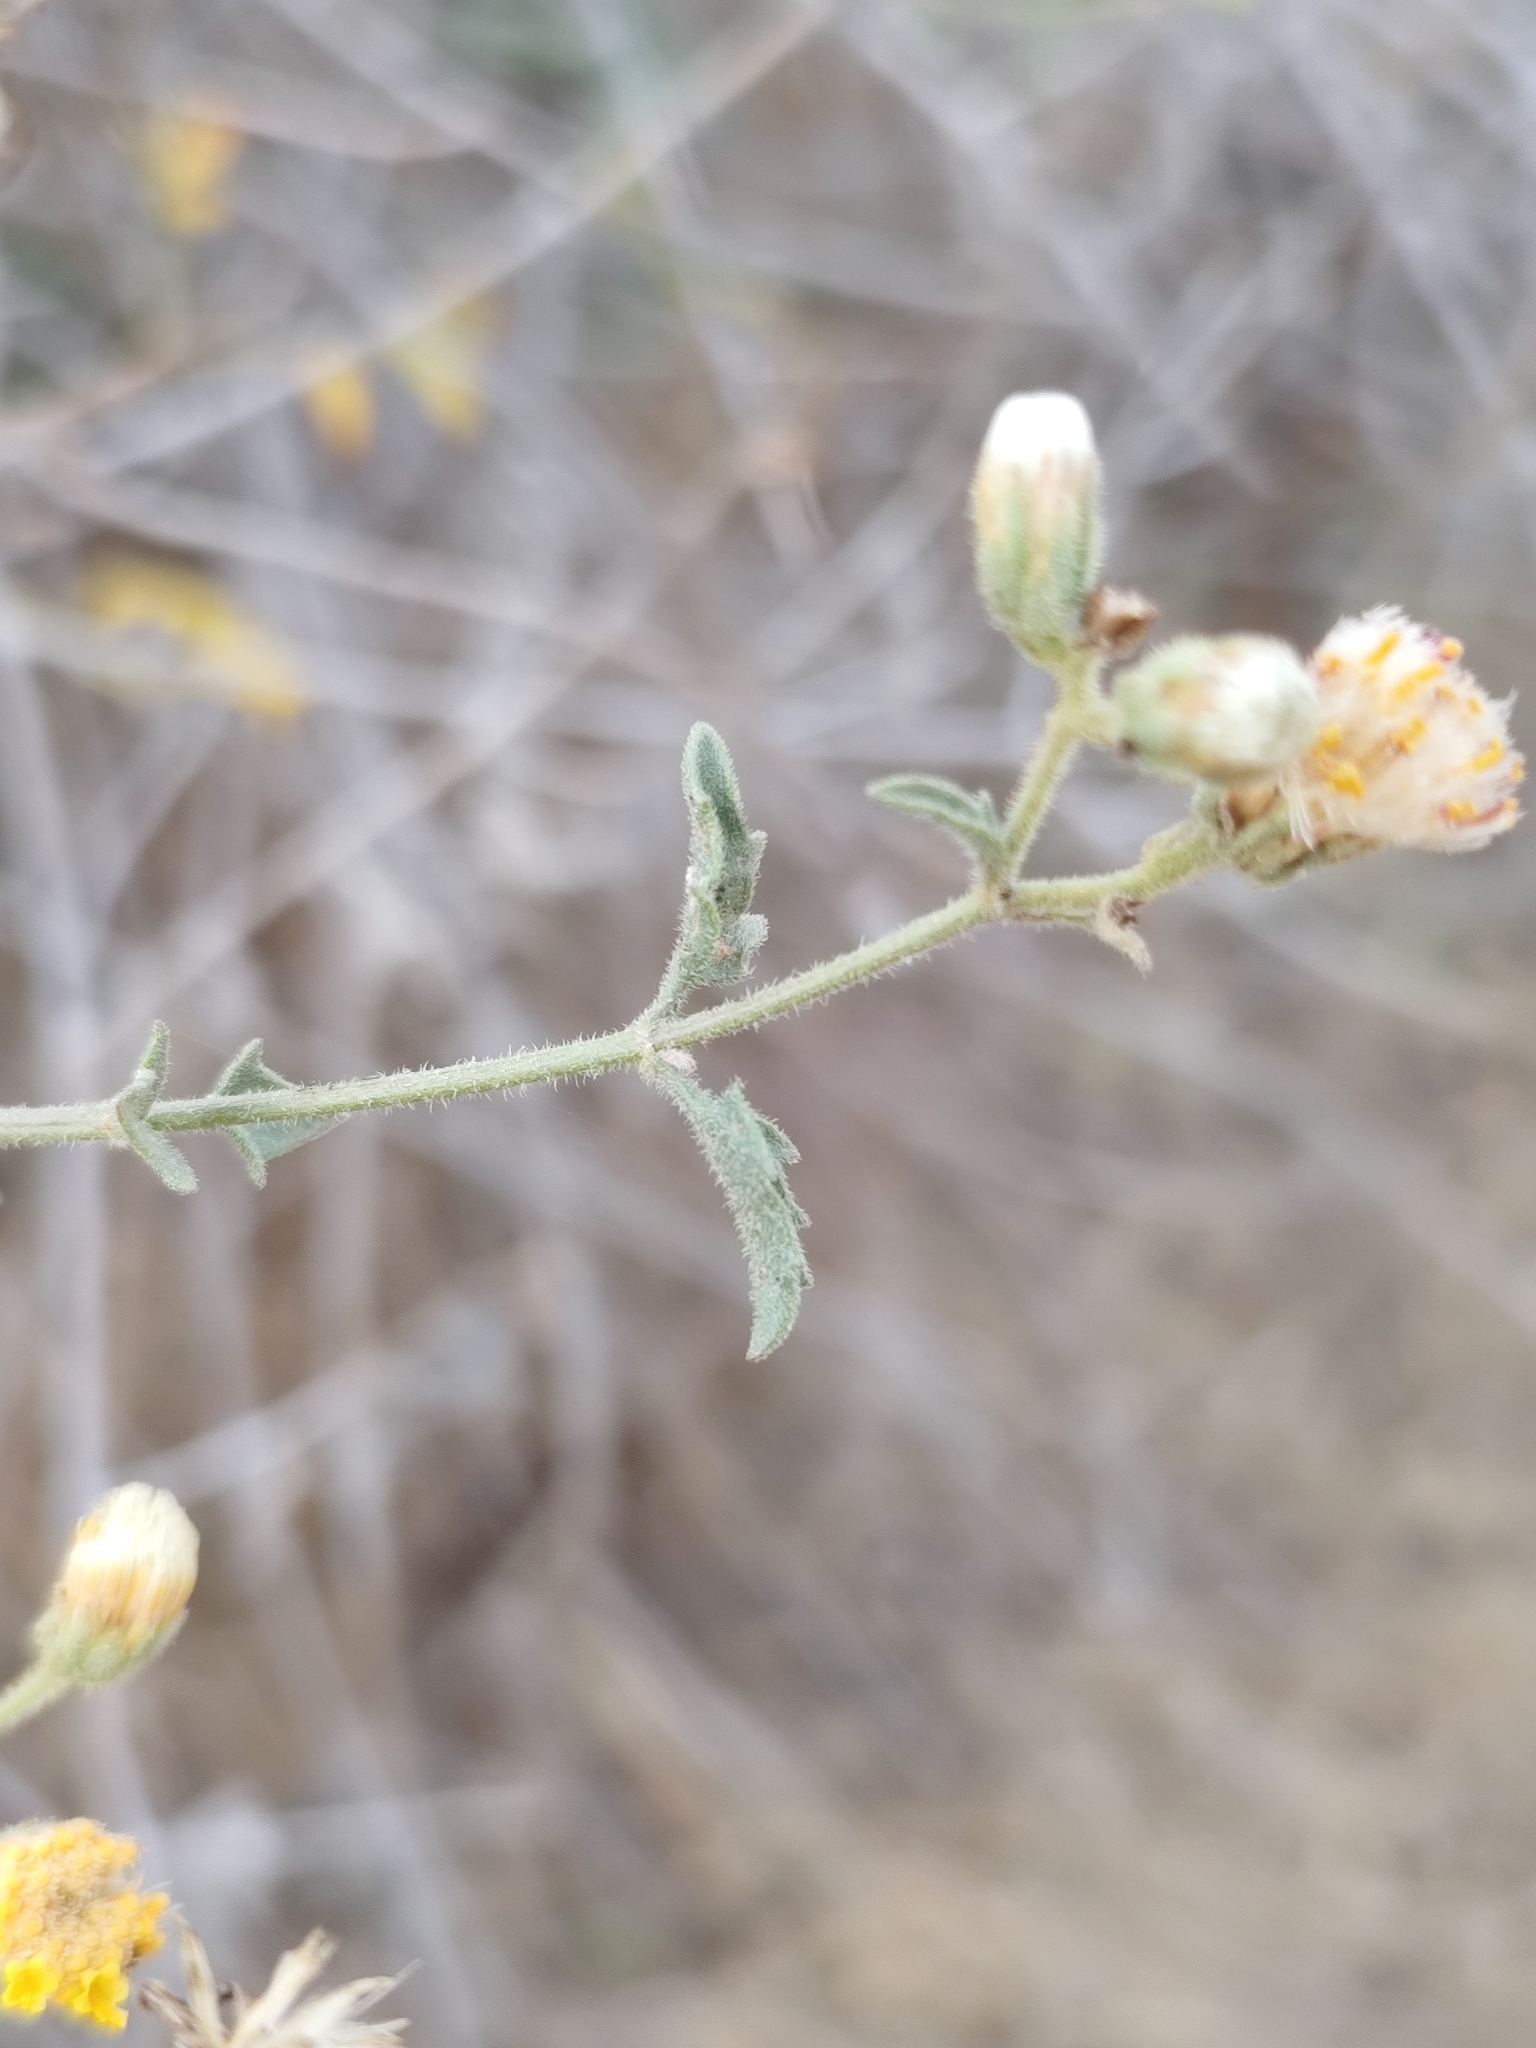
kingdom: Plantae
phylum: Tracheophyta
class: Magnoliopsida
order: Asterales
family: Asteraceae
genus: Bebbia
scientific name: Bebbia atriplicifolia
